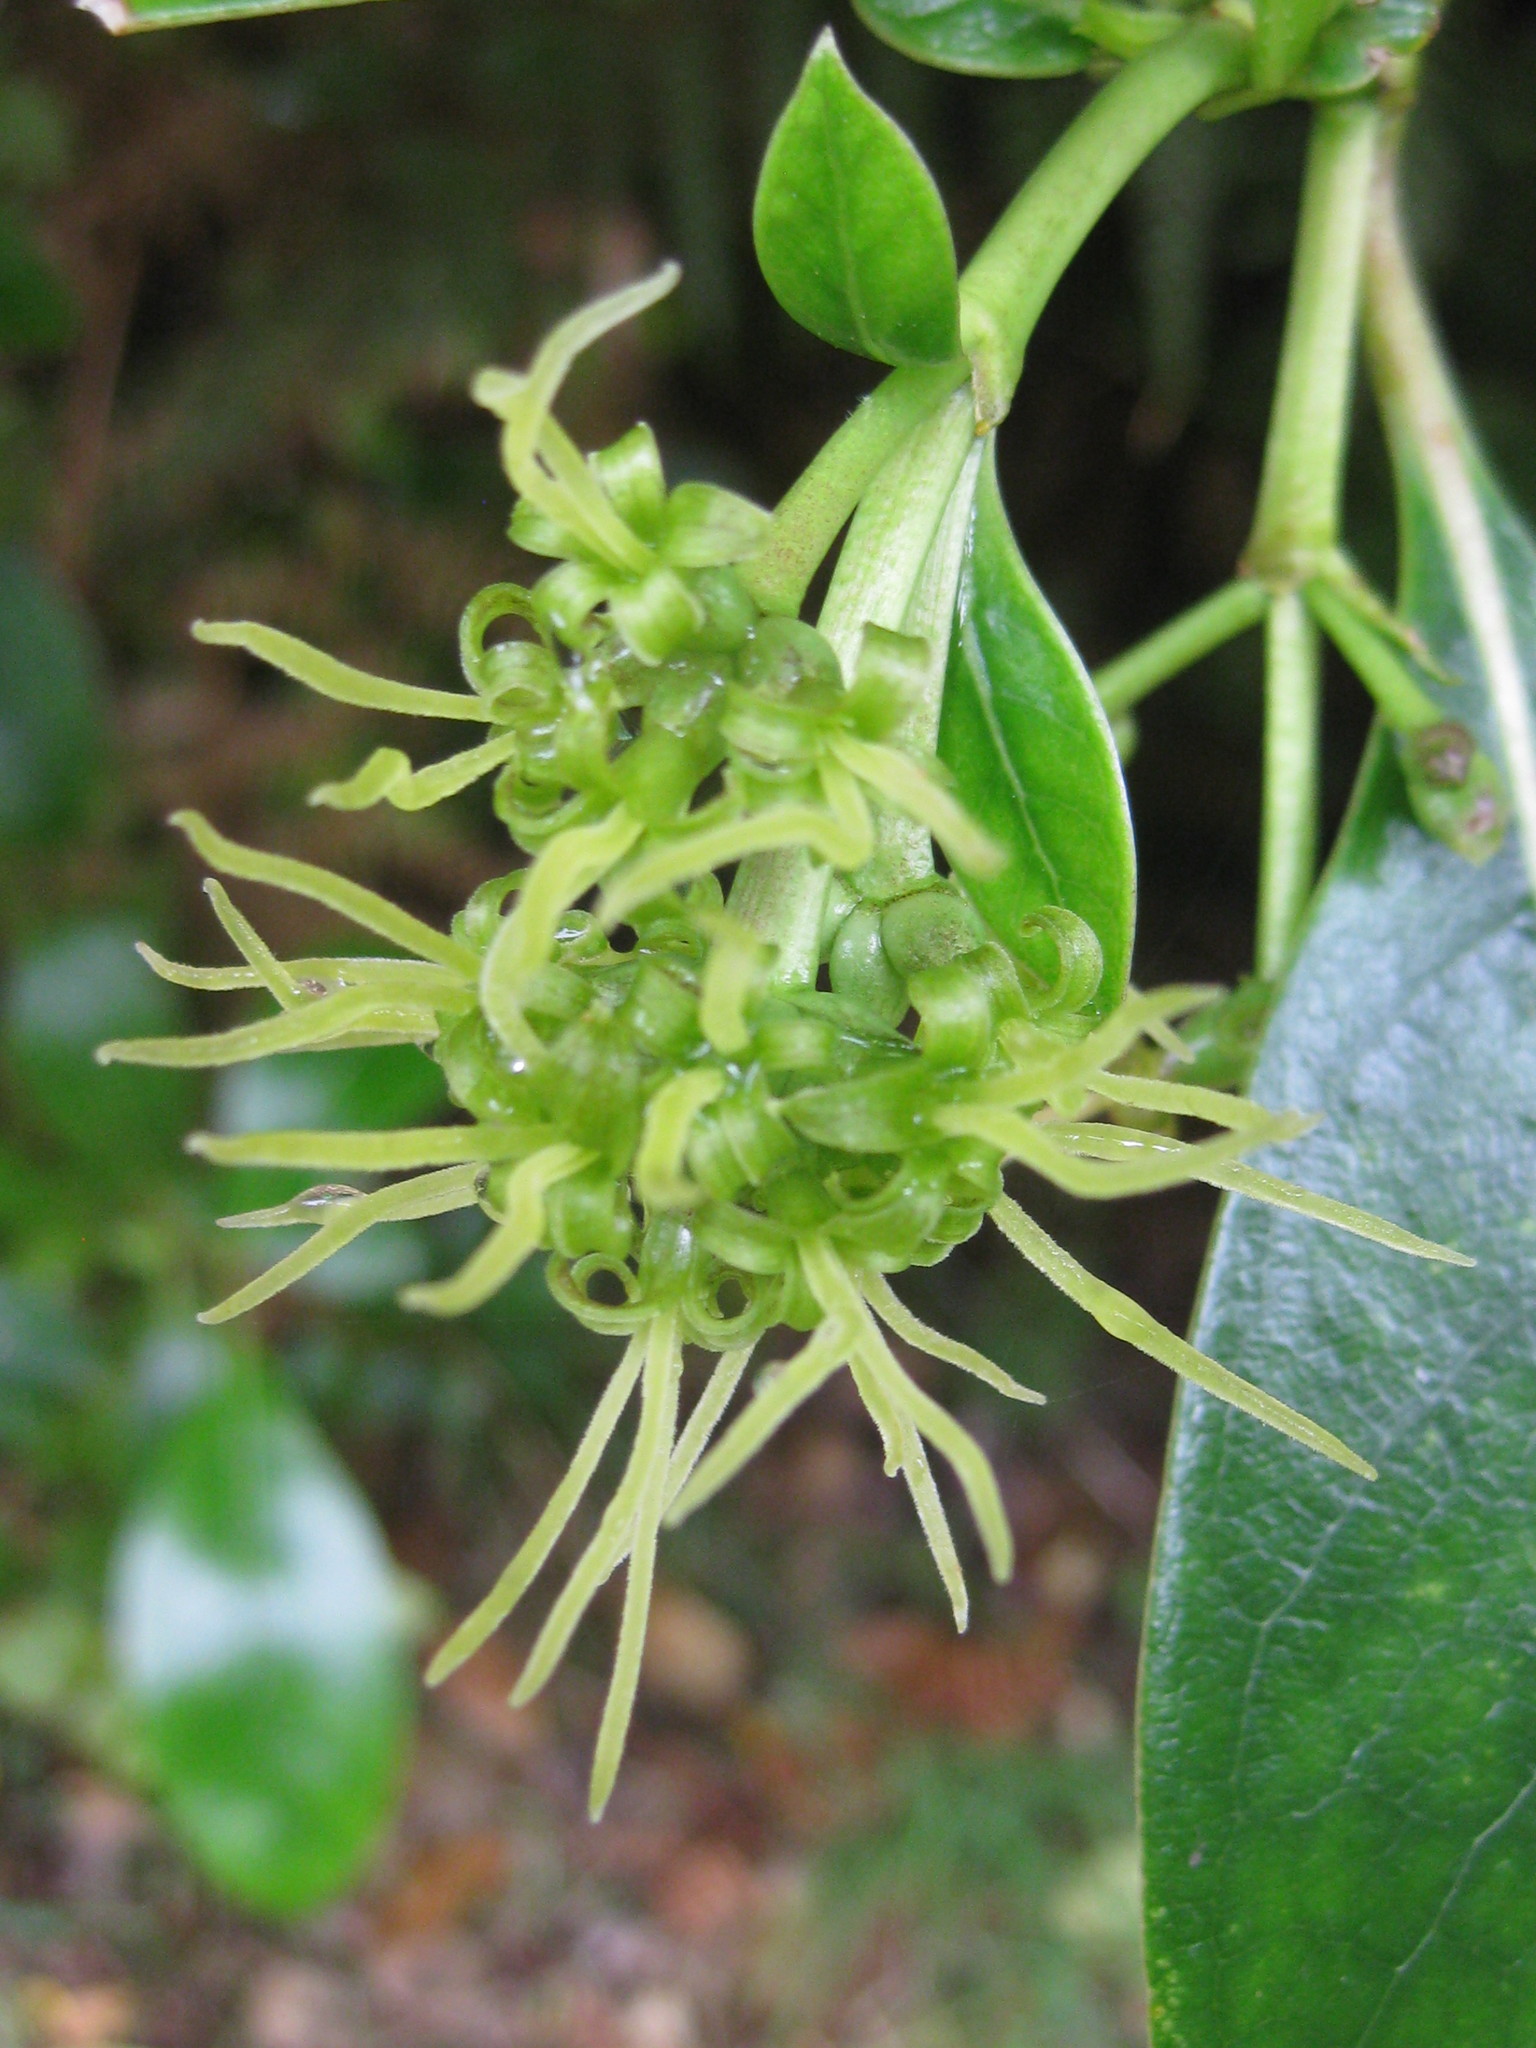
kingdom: Plantae
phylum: Tracheophyta
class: Magnoliopsida
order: Gentianales
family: Rubiaceae
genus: Coprosma
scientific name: Coprosma lucida
